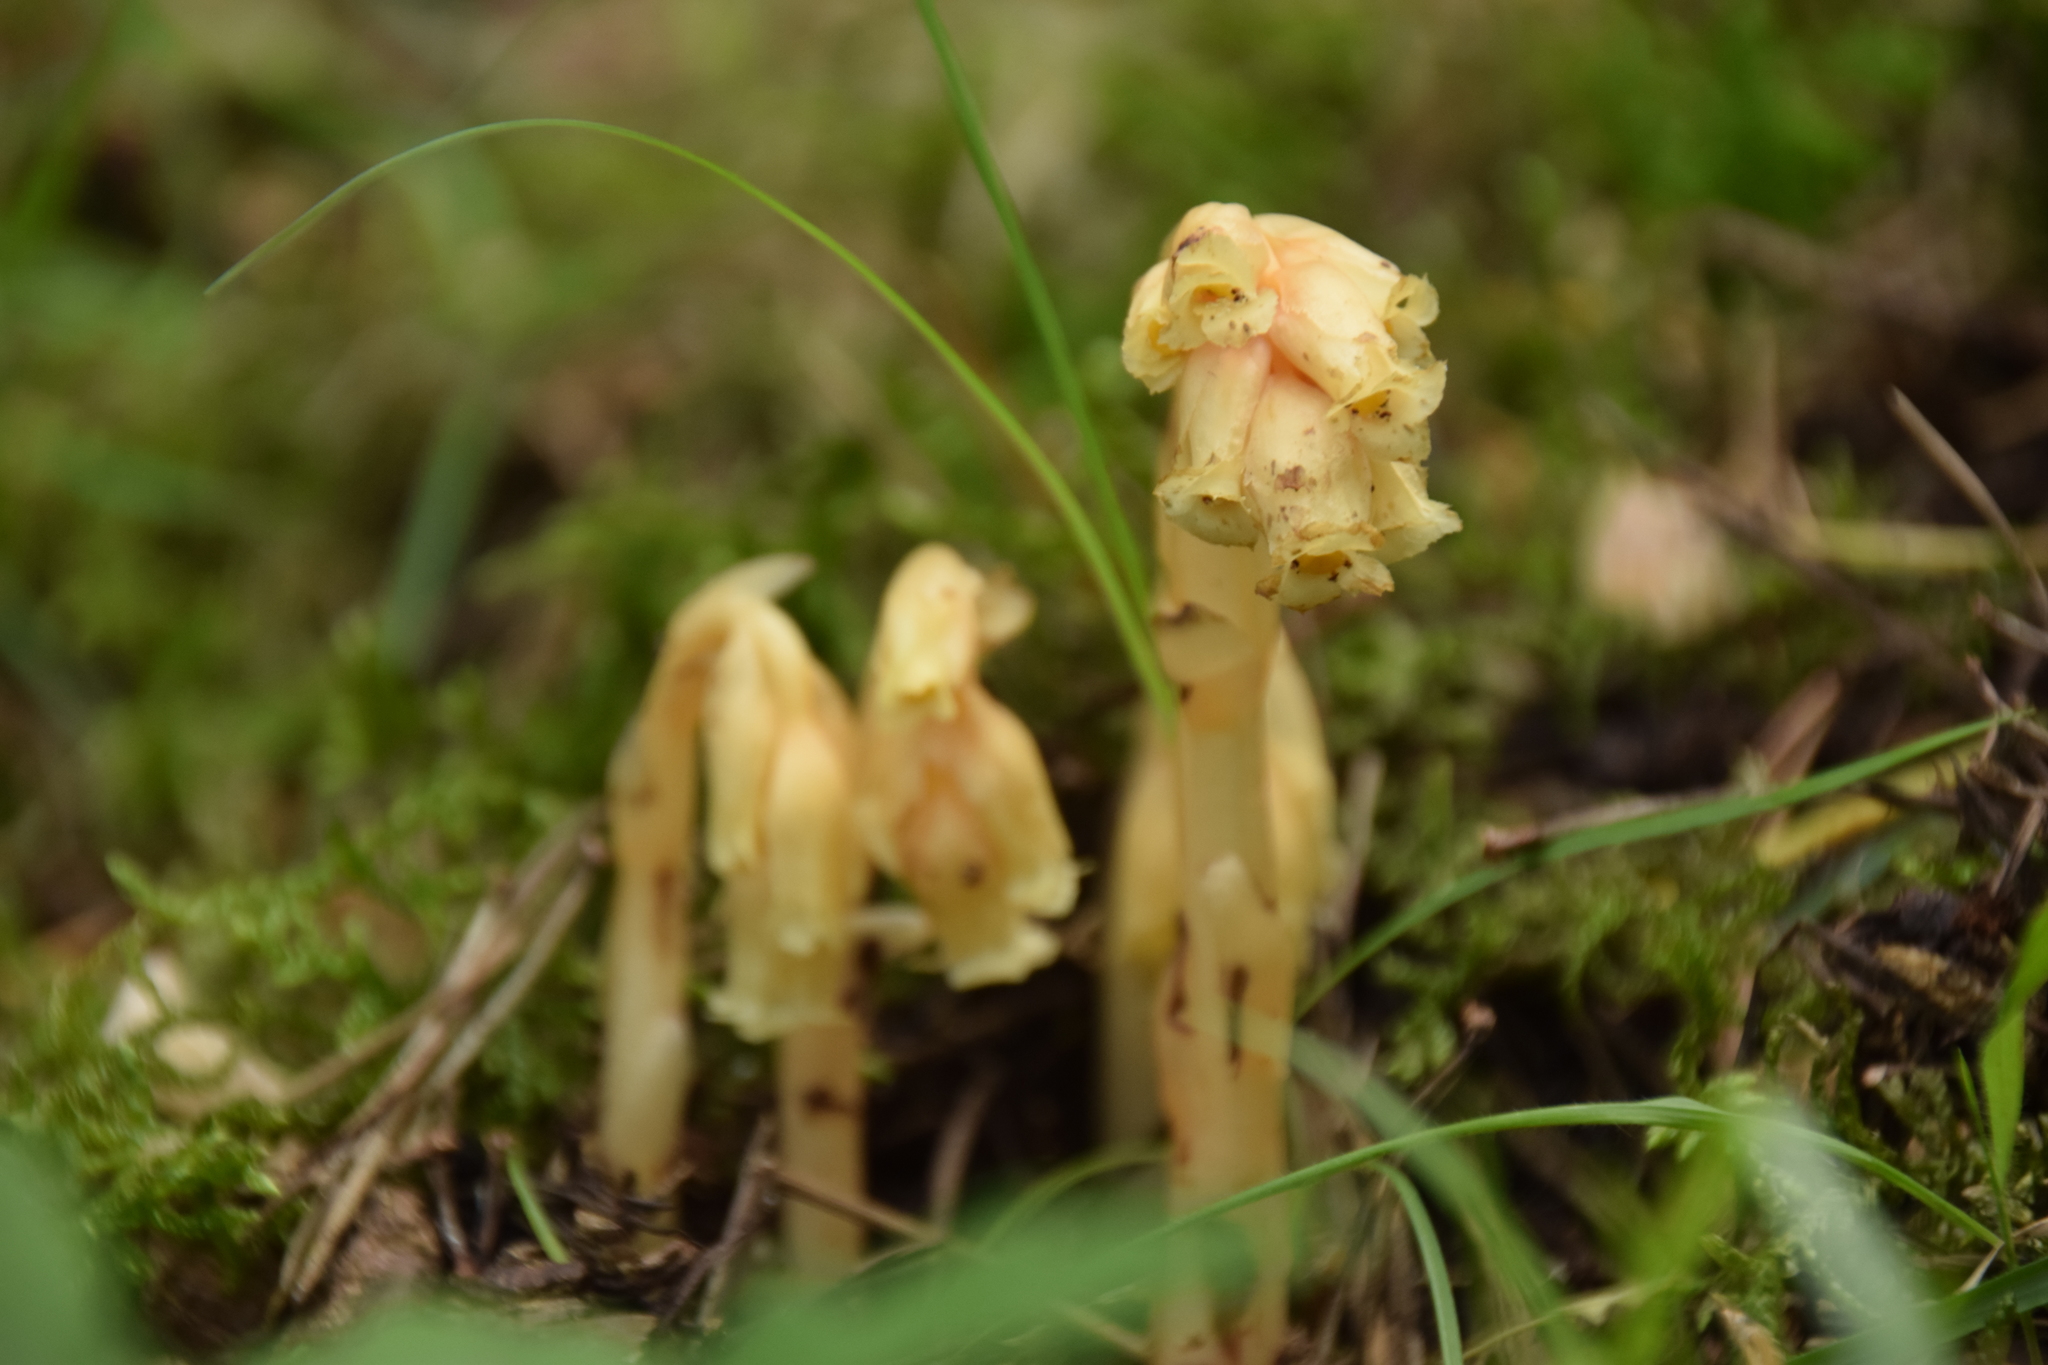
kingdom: Plantae
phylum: Tracheophyta
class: Magnoliopsida
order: Ericales
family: Ericaceae
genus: Hypopitys
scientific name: Hypopitys monotropa
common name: Yellow bird's-nest
